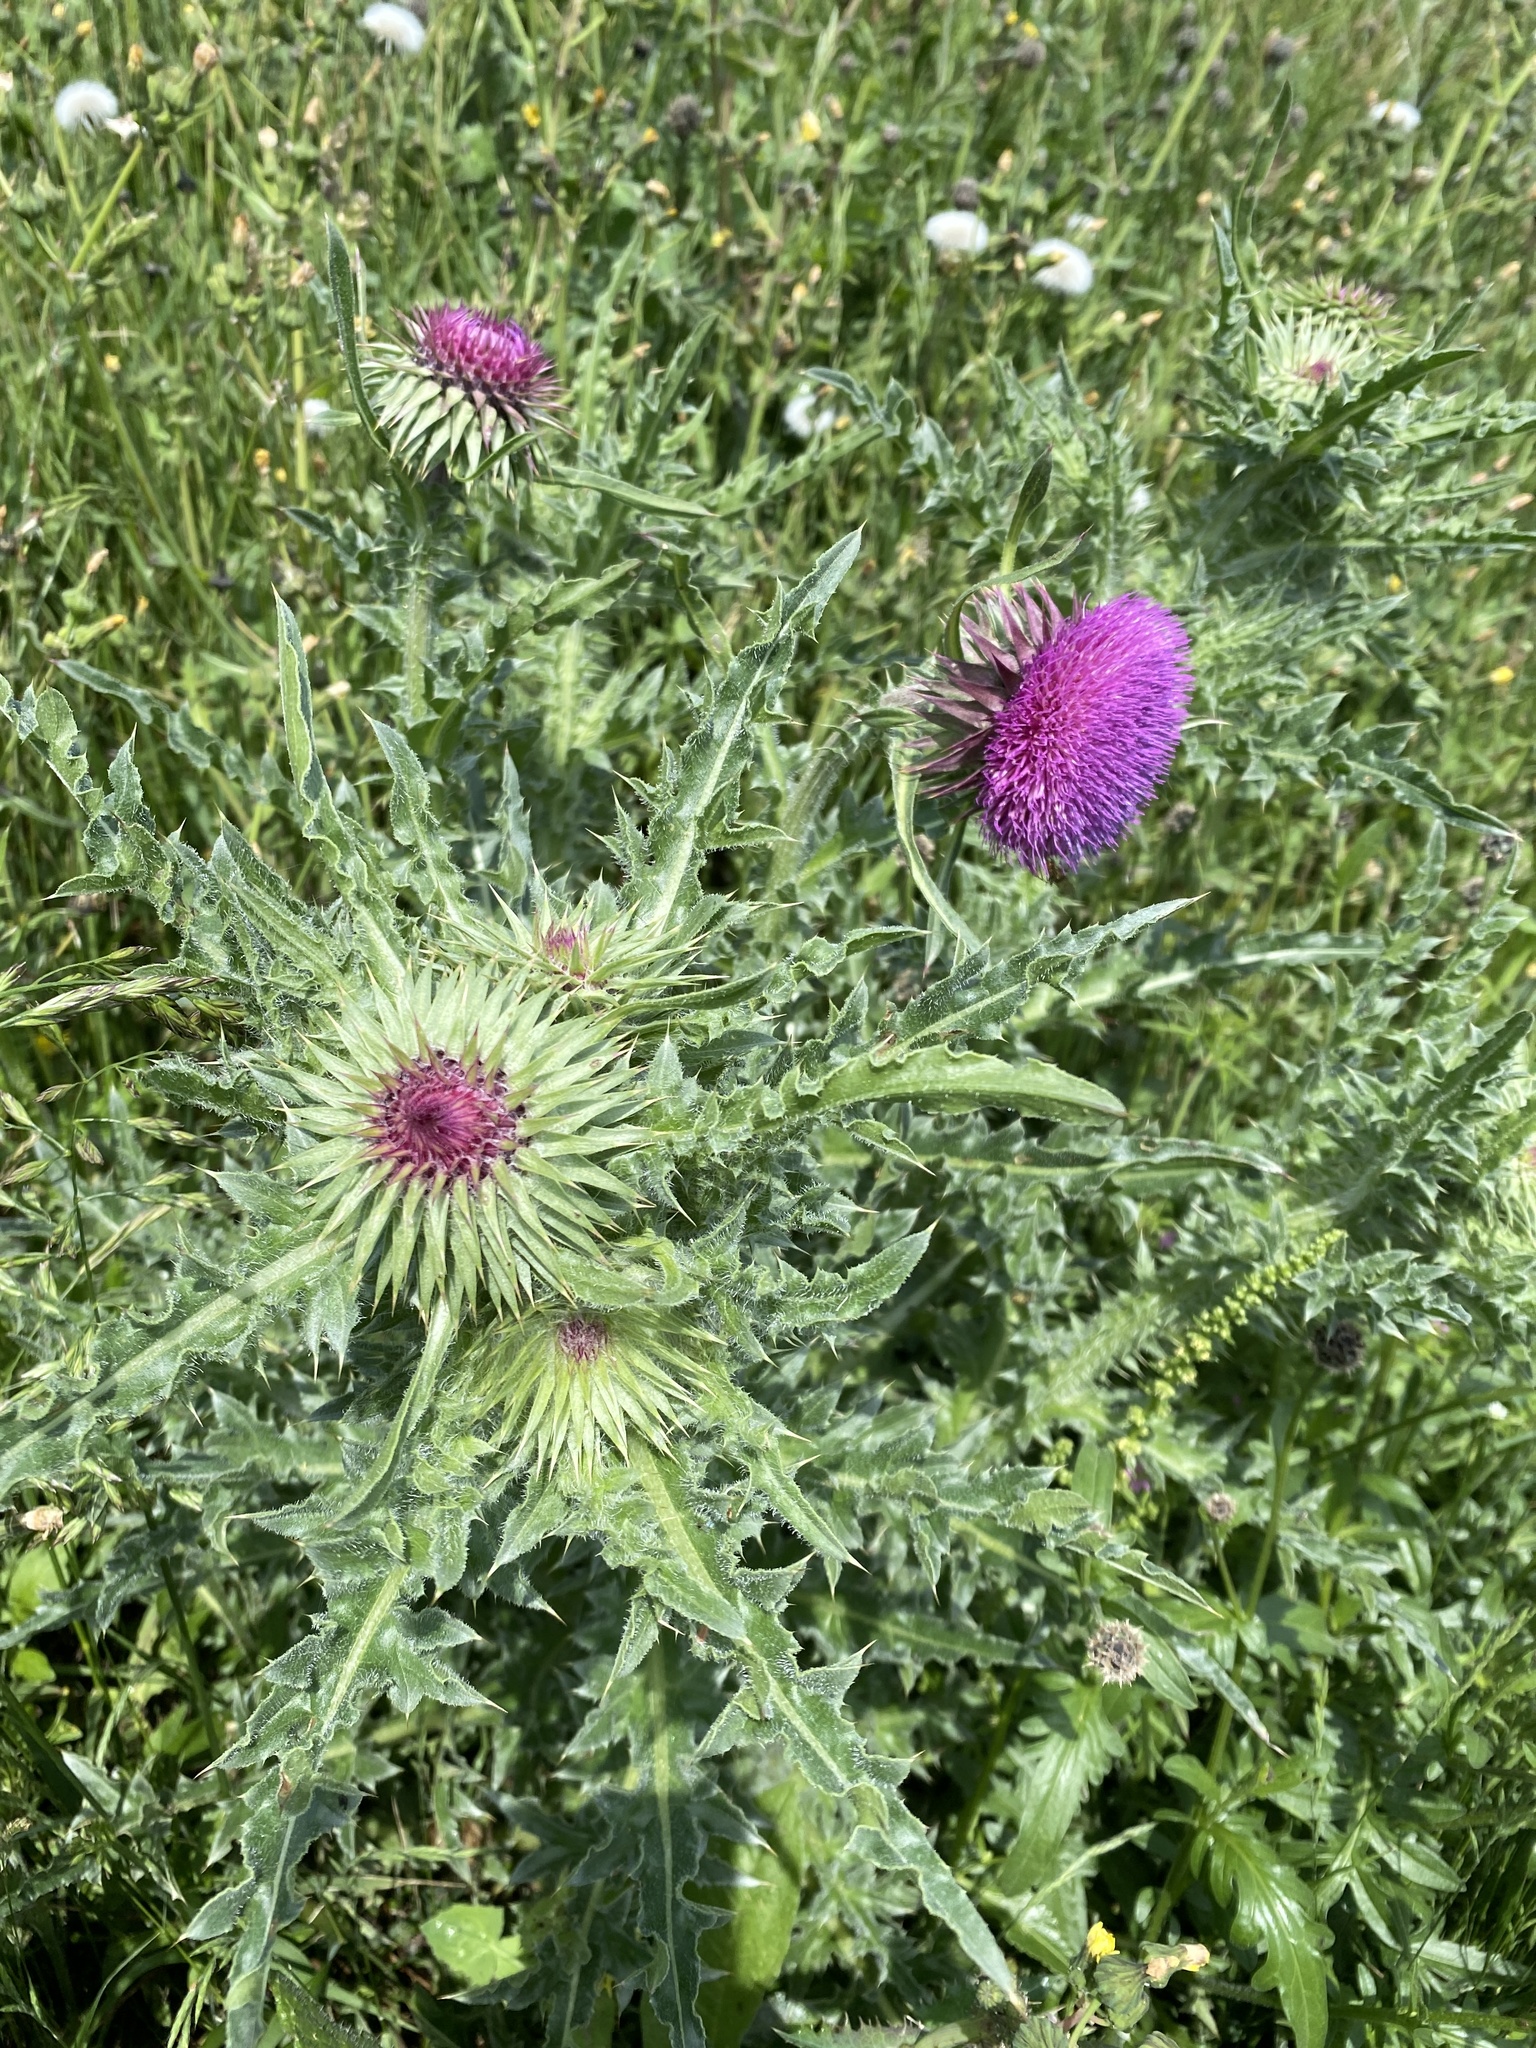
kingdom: Plantae
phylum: Tracheophyta
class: Magnoliopsida
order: Asterales
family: Asteraceae
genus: Carduus
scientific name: Carduus nutans
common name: Musk thistle
